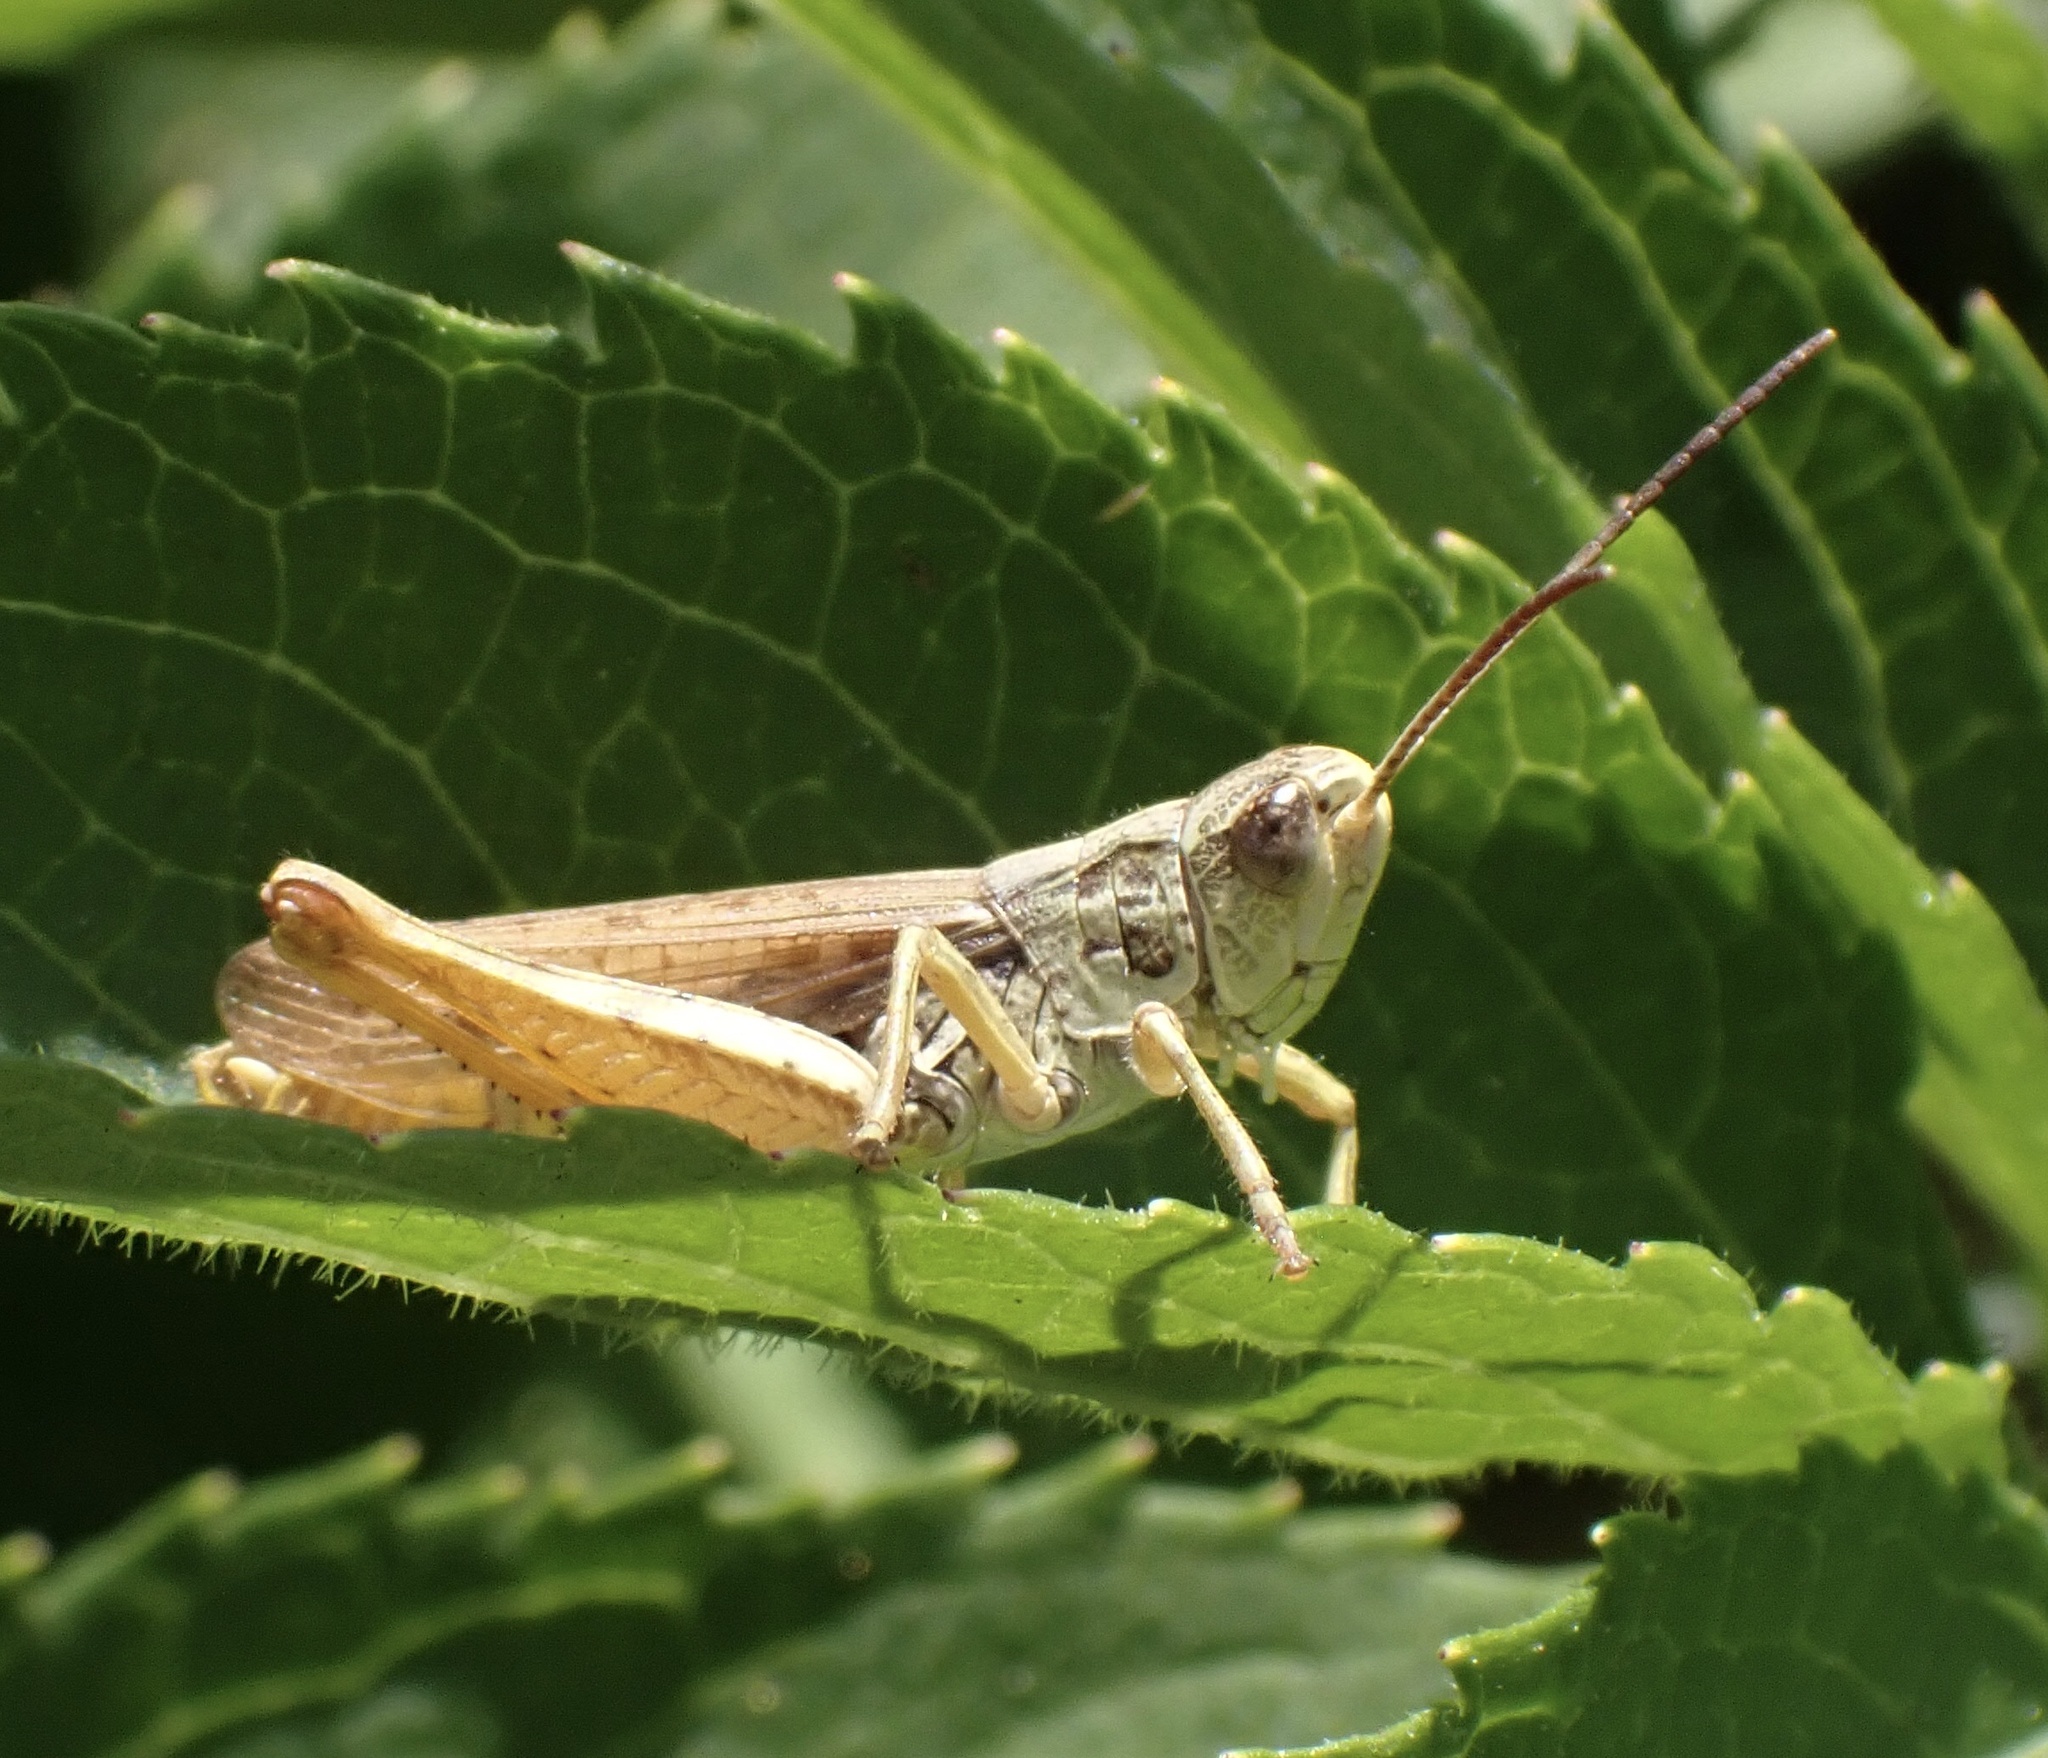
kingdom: Animalia
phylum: Arthropoda
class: Insecta
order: Orthoptera
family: Acrididae
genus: Chorthippus
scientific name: Chorthippus apricarius
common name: Upland field grasshopper
